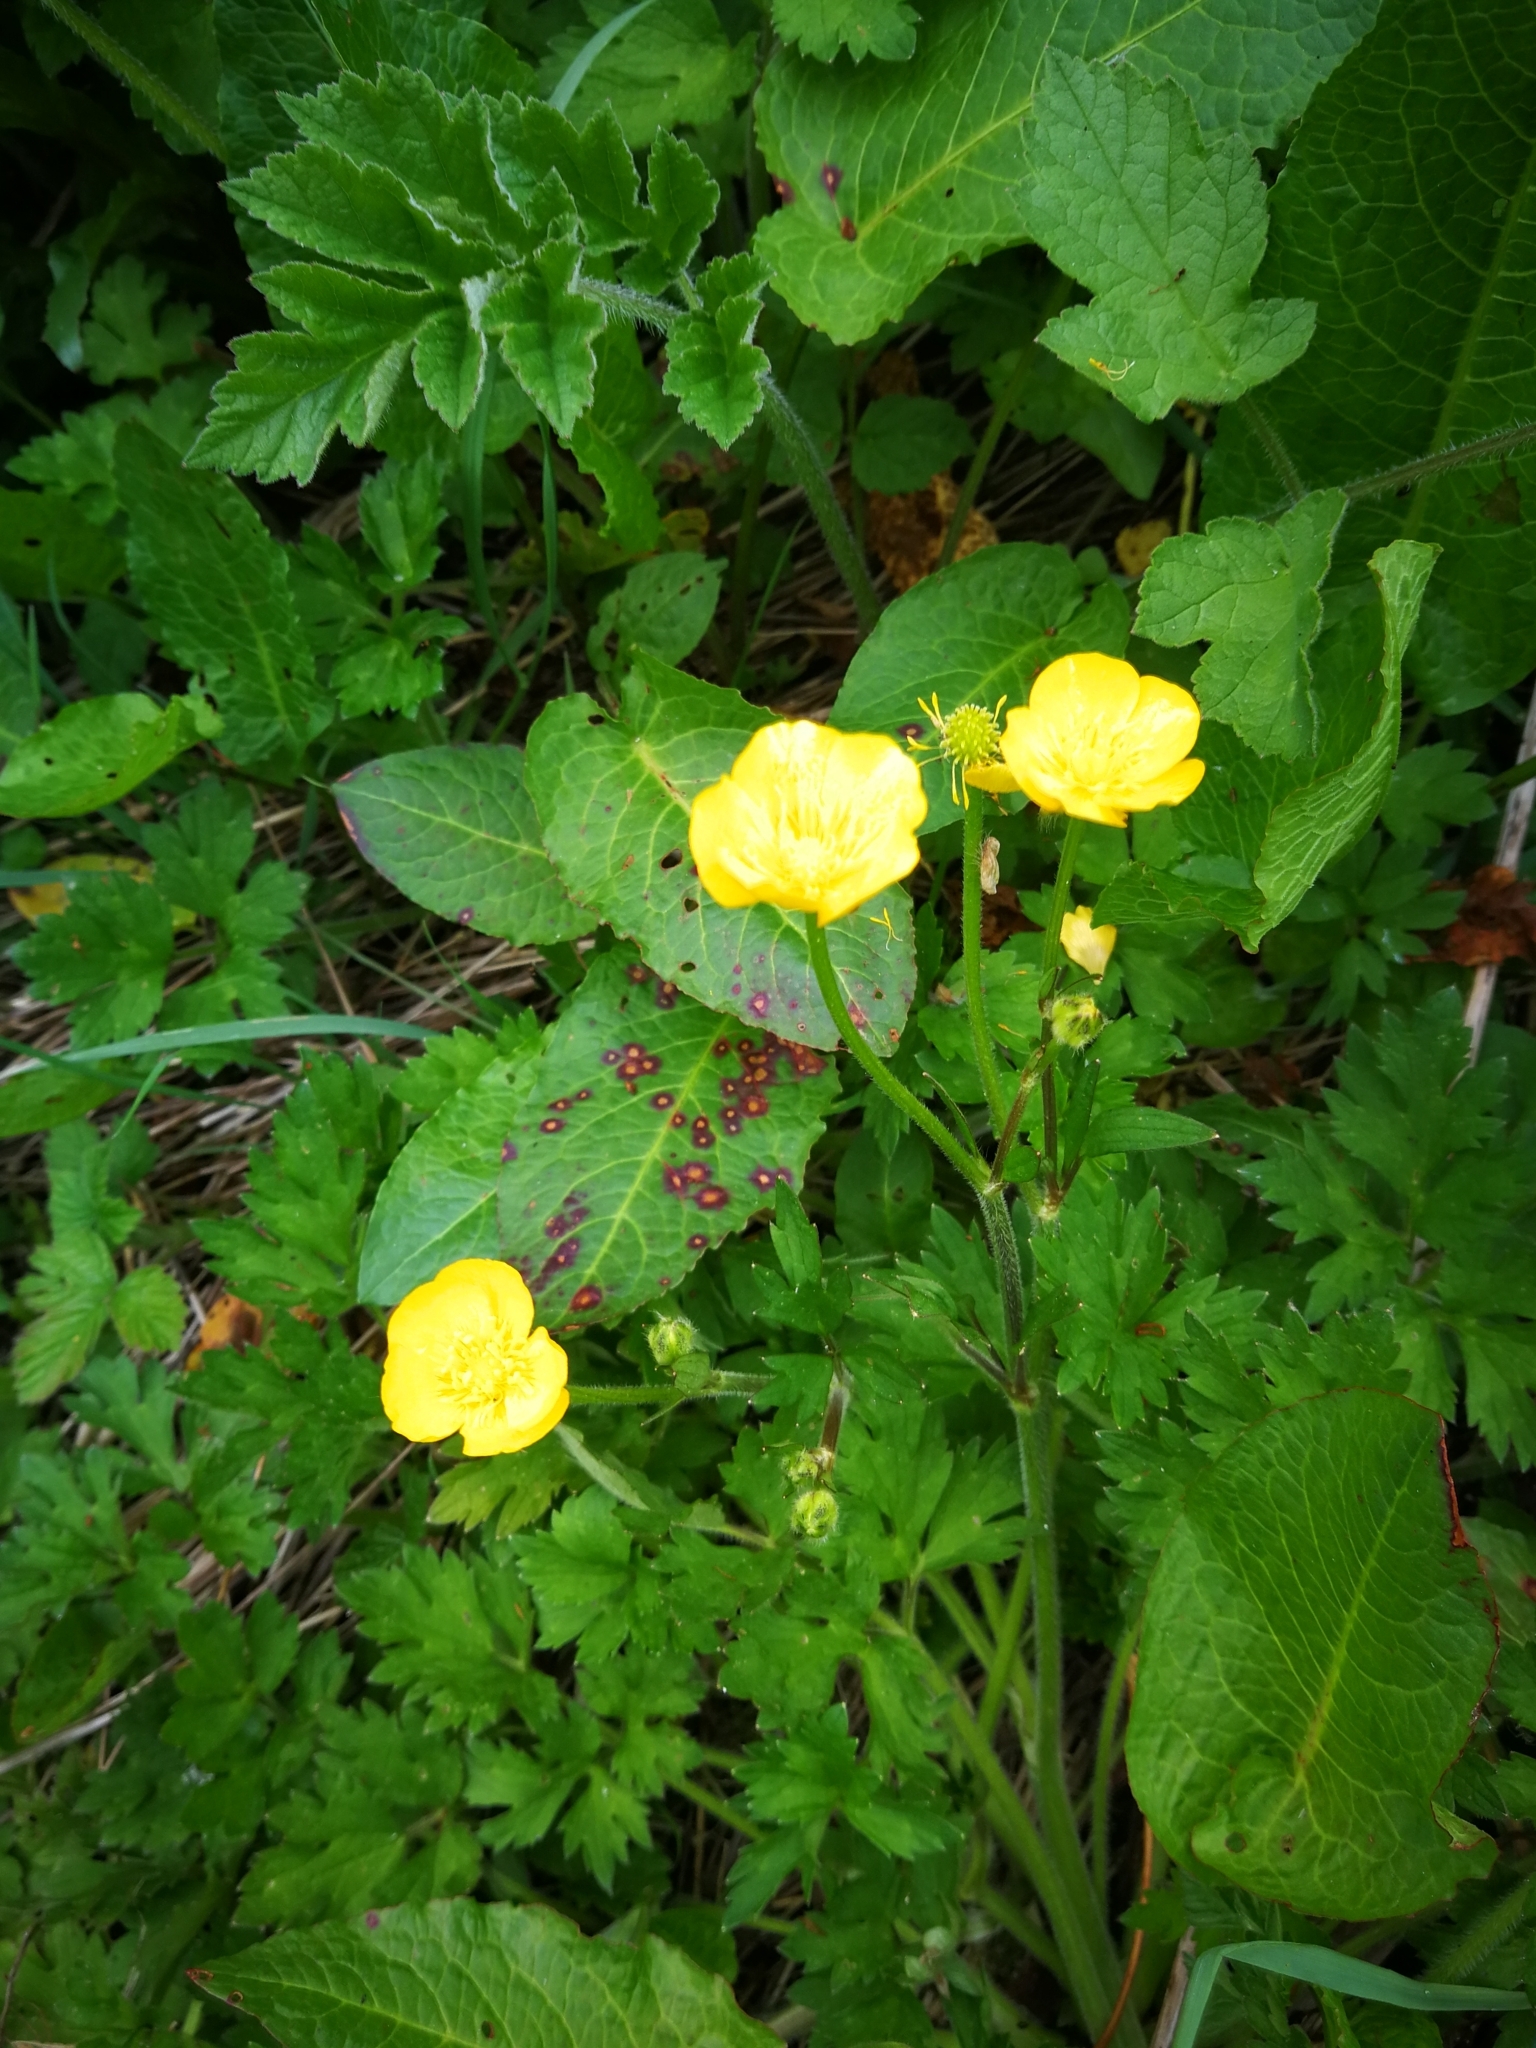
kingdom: Plantae
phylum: Tracheophyta
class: Magnoliopsida
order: Ranunculales
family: Ranunculaceae
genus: Ranunculus
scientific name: Ranunculus repens
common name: Creeping buttercup
